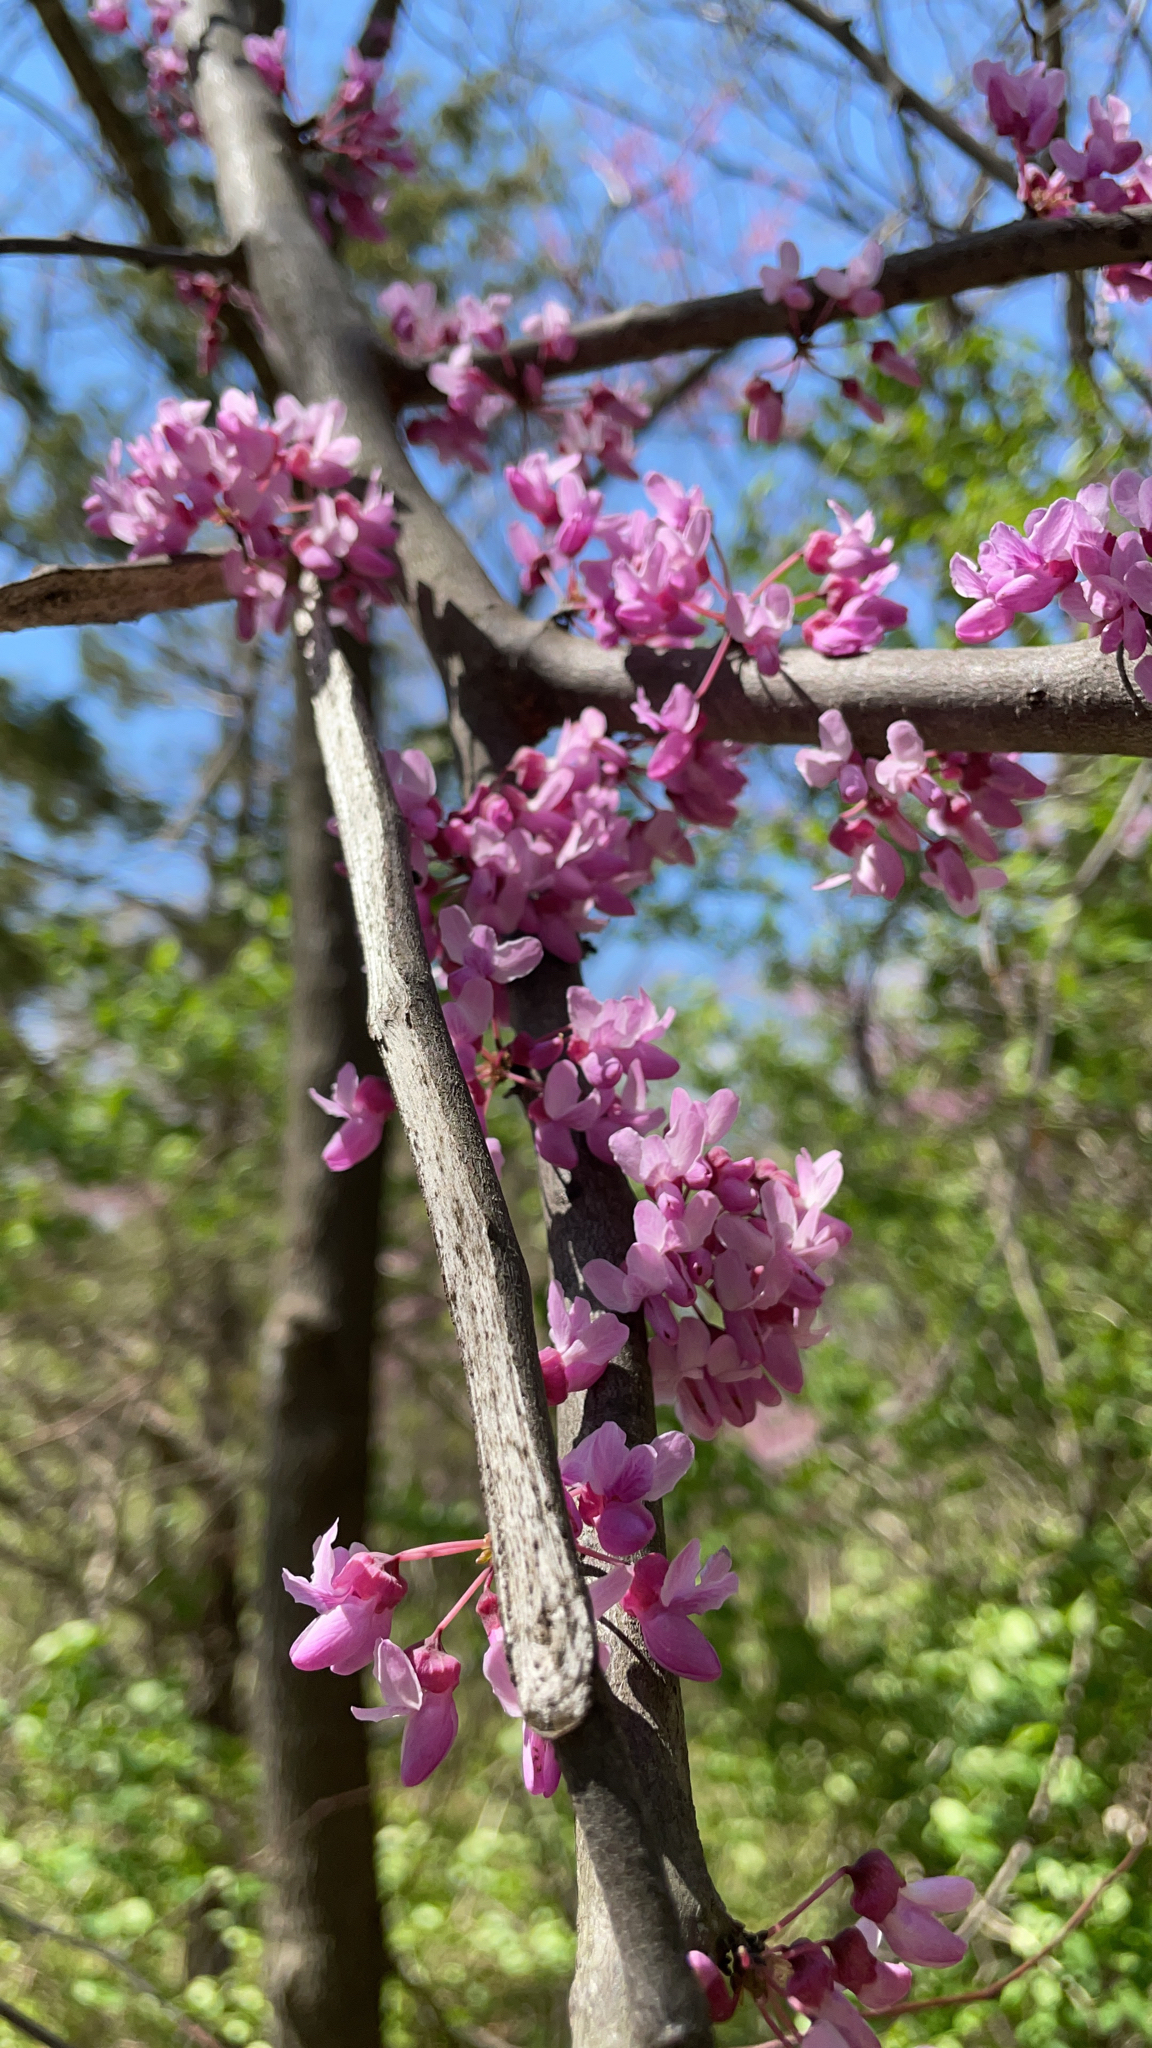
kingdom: Plantae
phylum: Tracheophyta
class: Magnoliopsida
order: Fabales
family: Fabaceae
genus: Cercis
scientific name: Cercis canadensis
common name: Eastern redbud
